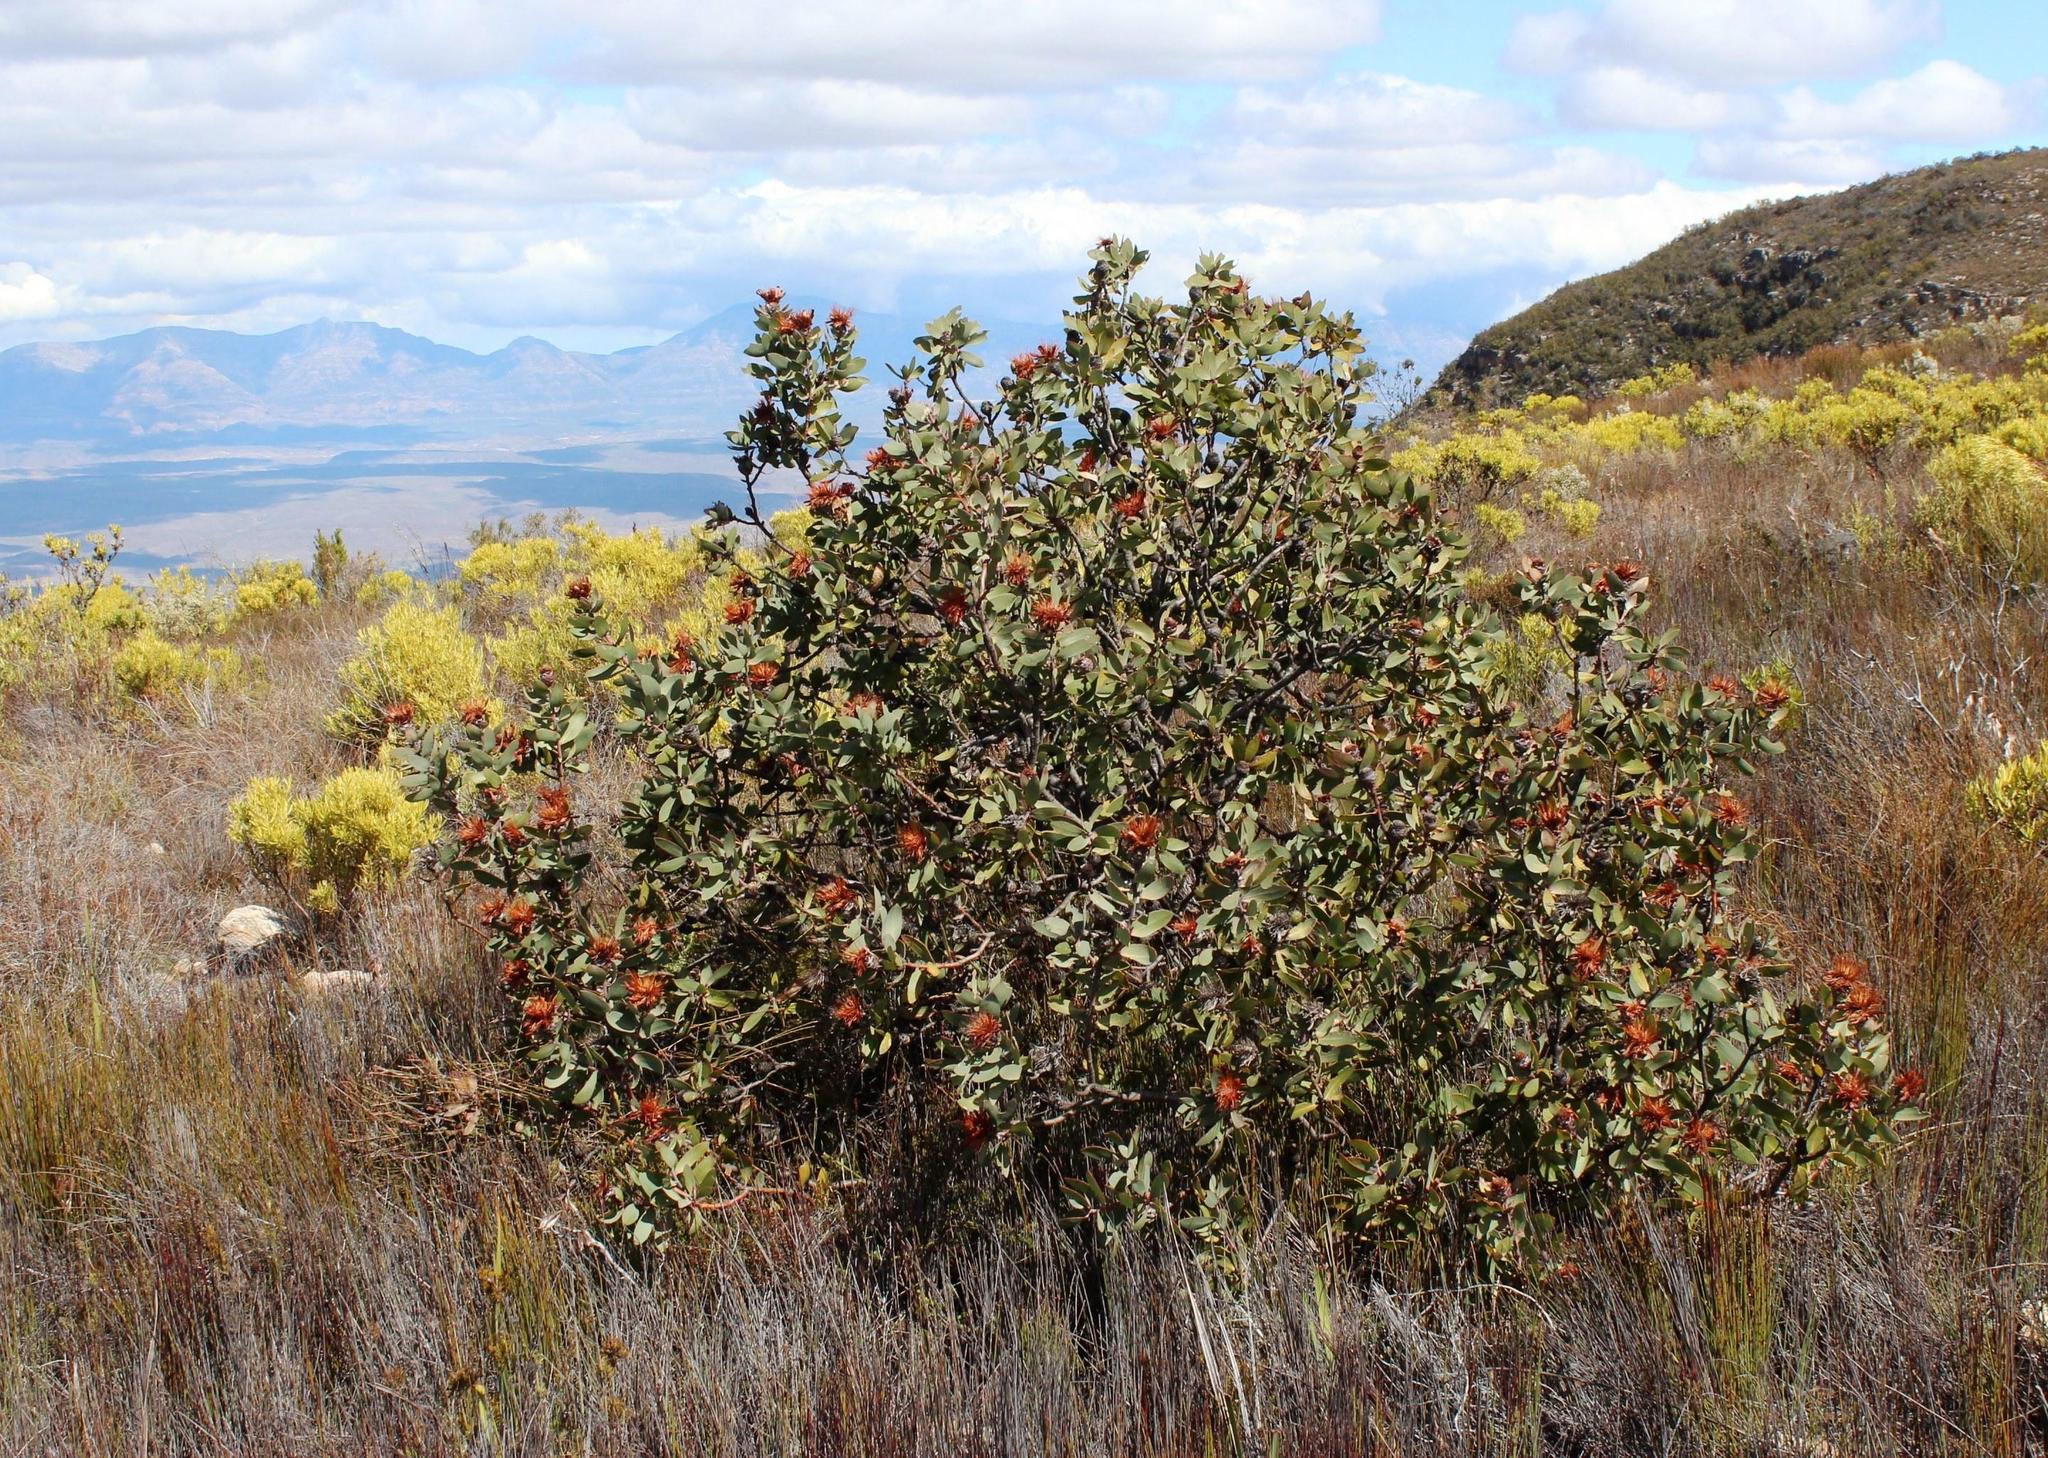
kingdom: Plantae
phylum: Tracheophyta
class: Magnoliopsida
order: Proteales
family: Proteaceae
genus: Protea
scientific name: Protea punctata
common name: Water sugarbush
